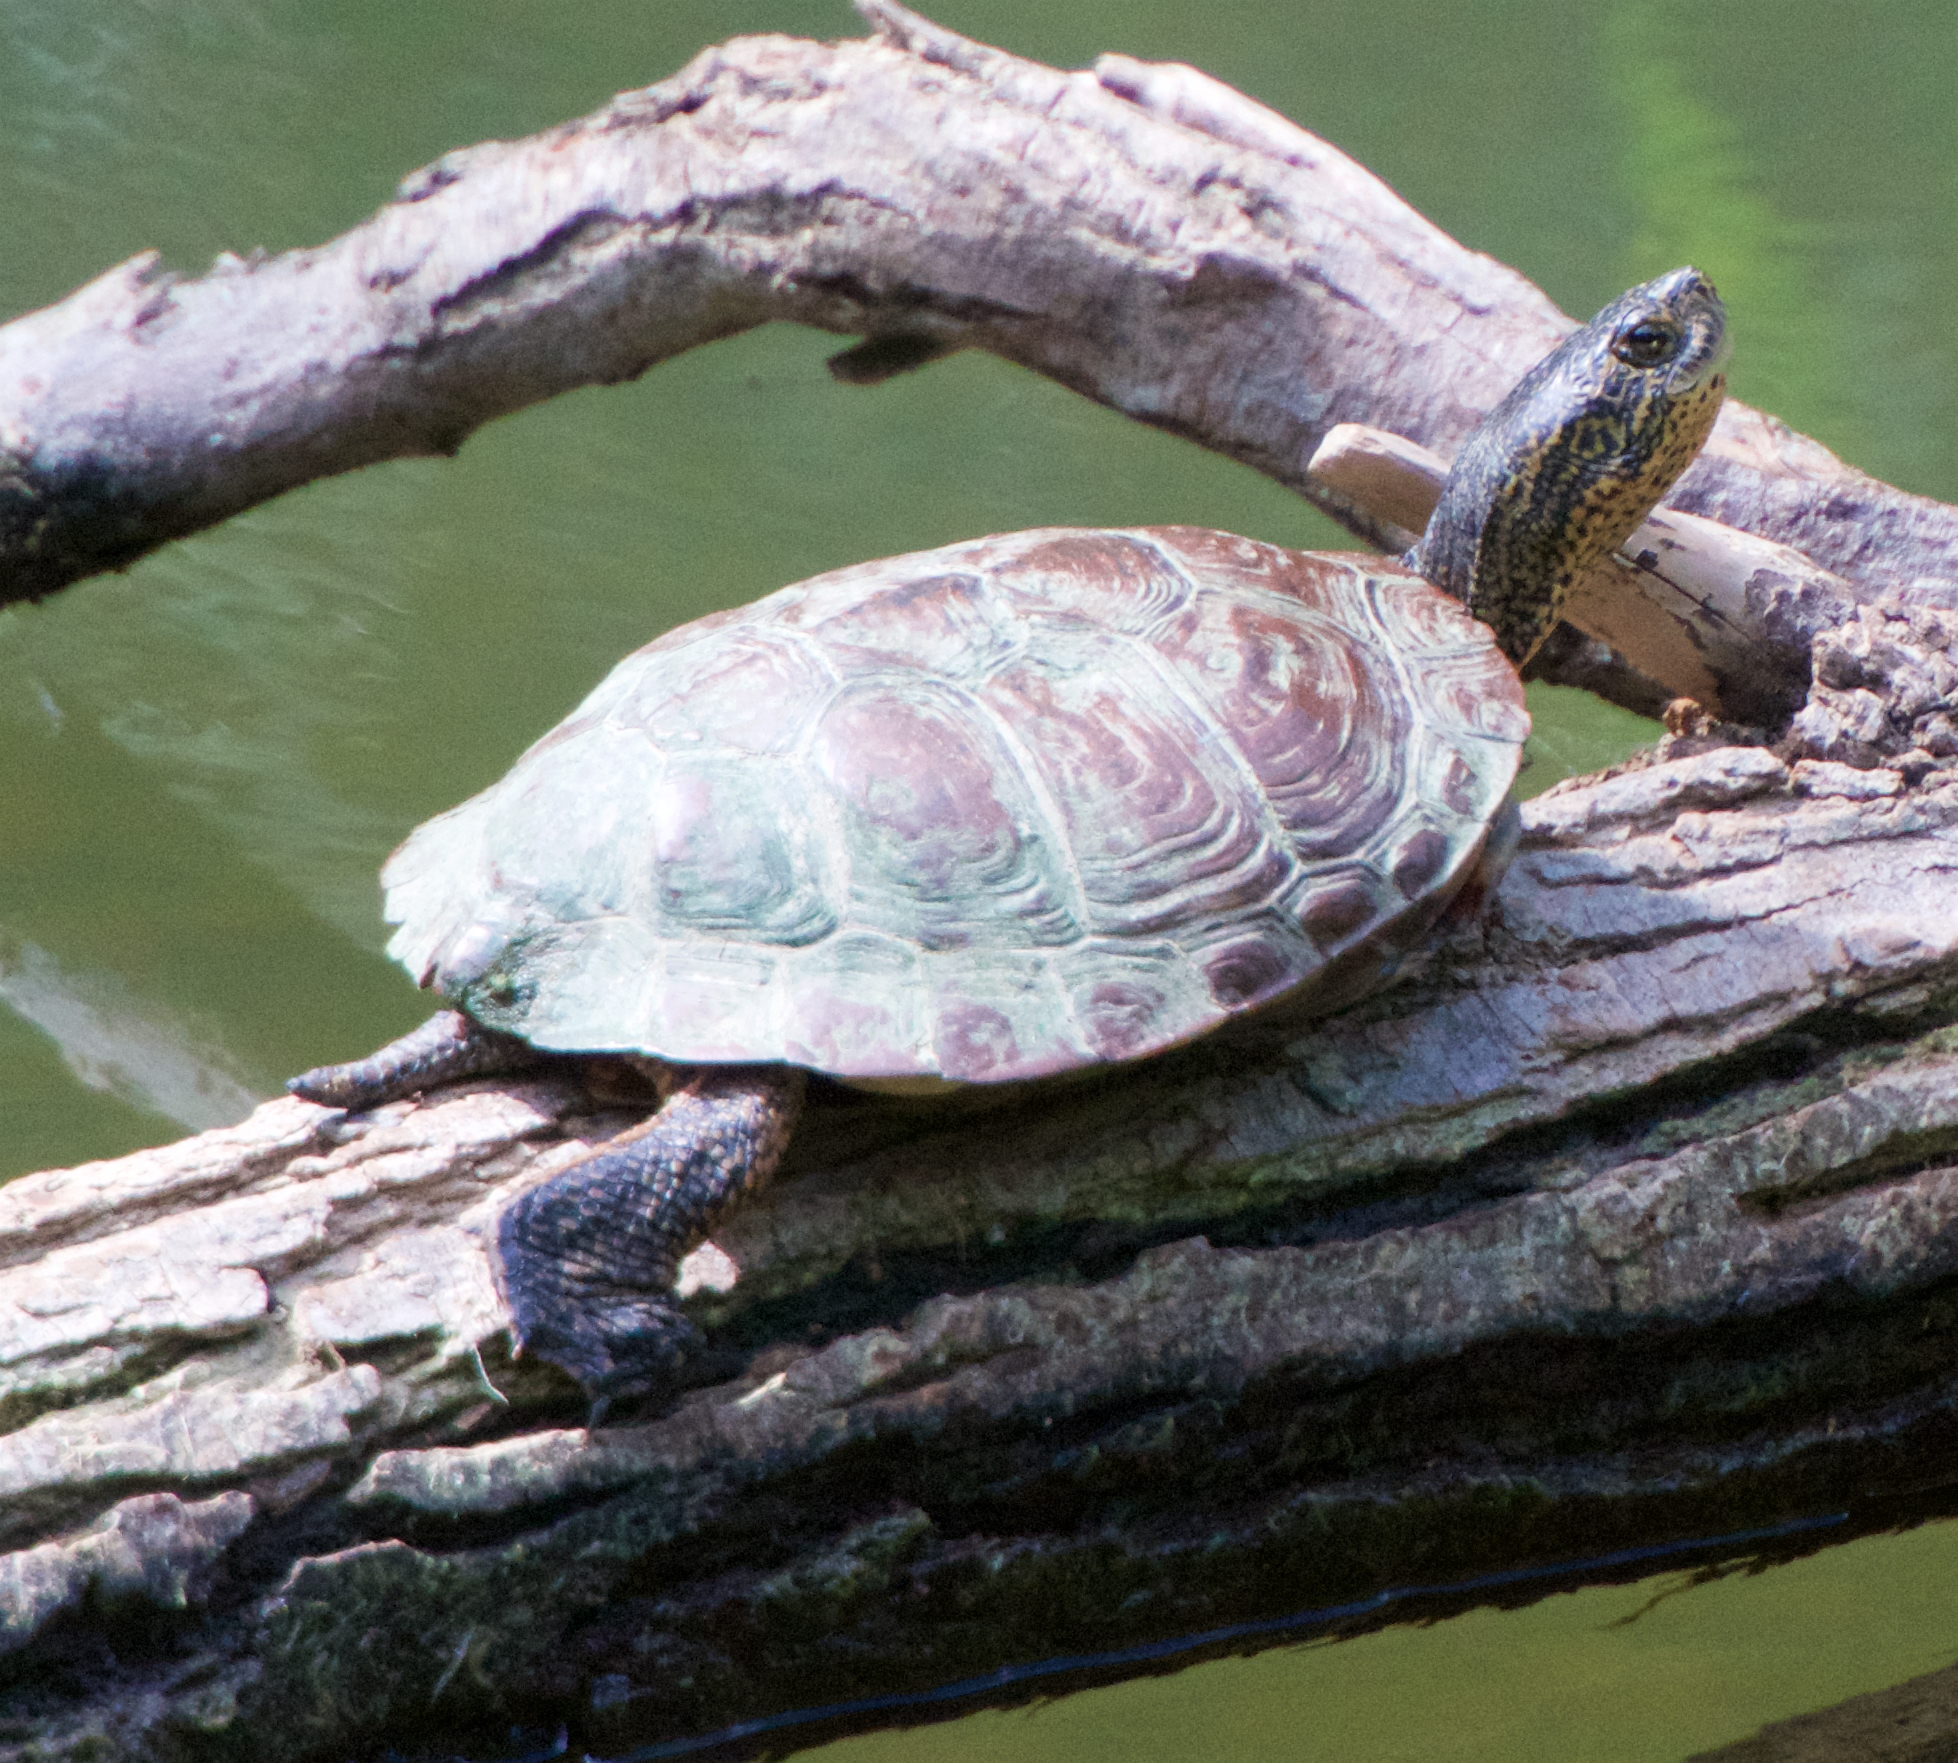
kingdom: Animalia
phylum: Chordata
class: Testudines
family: Emydidae
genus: Actinemys
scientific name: Actinemys marmorata
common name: Western pond turtle
